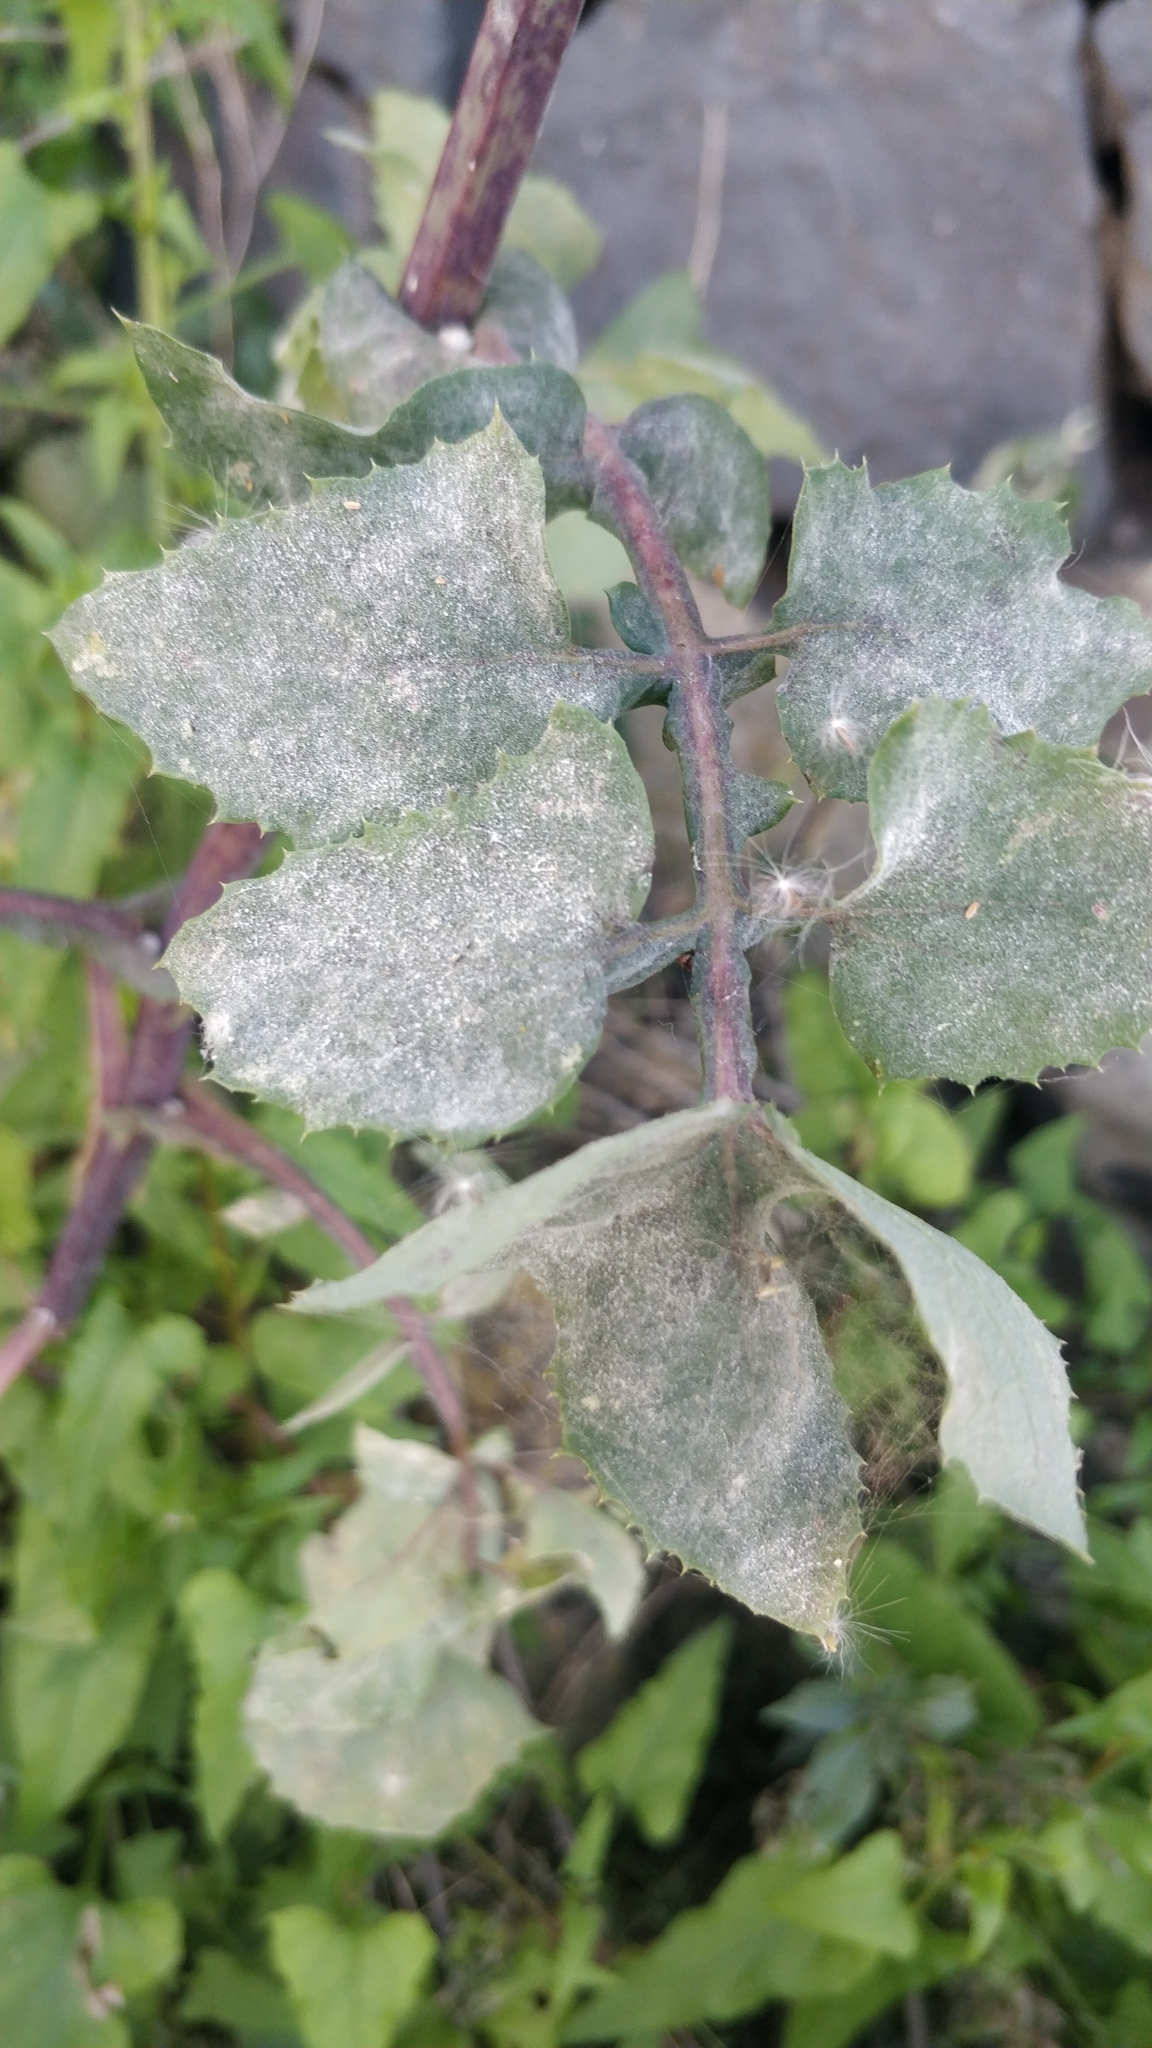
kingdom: Fungi
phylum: Ascomycota
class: Leotiomycetes
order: Helotiales
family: Erysiphaceae
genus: Golovinomyces
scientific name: Golovinomyces sonchicola
